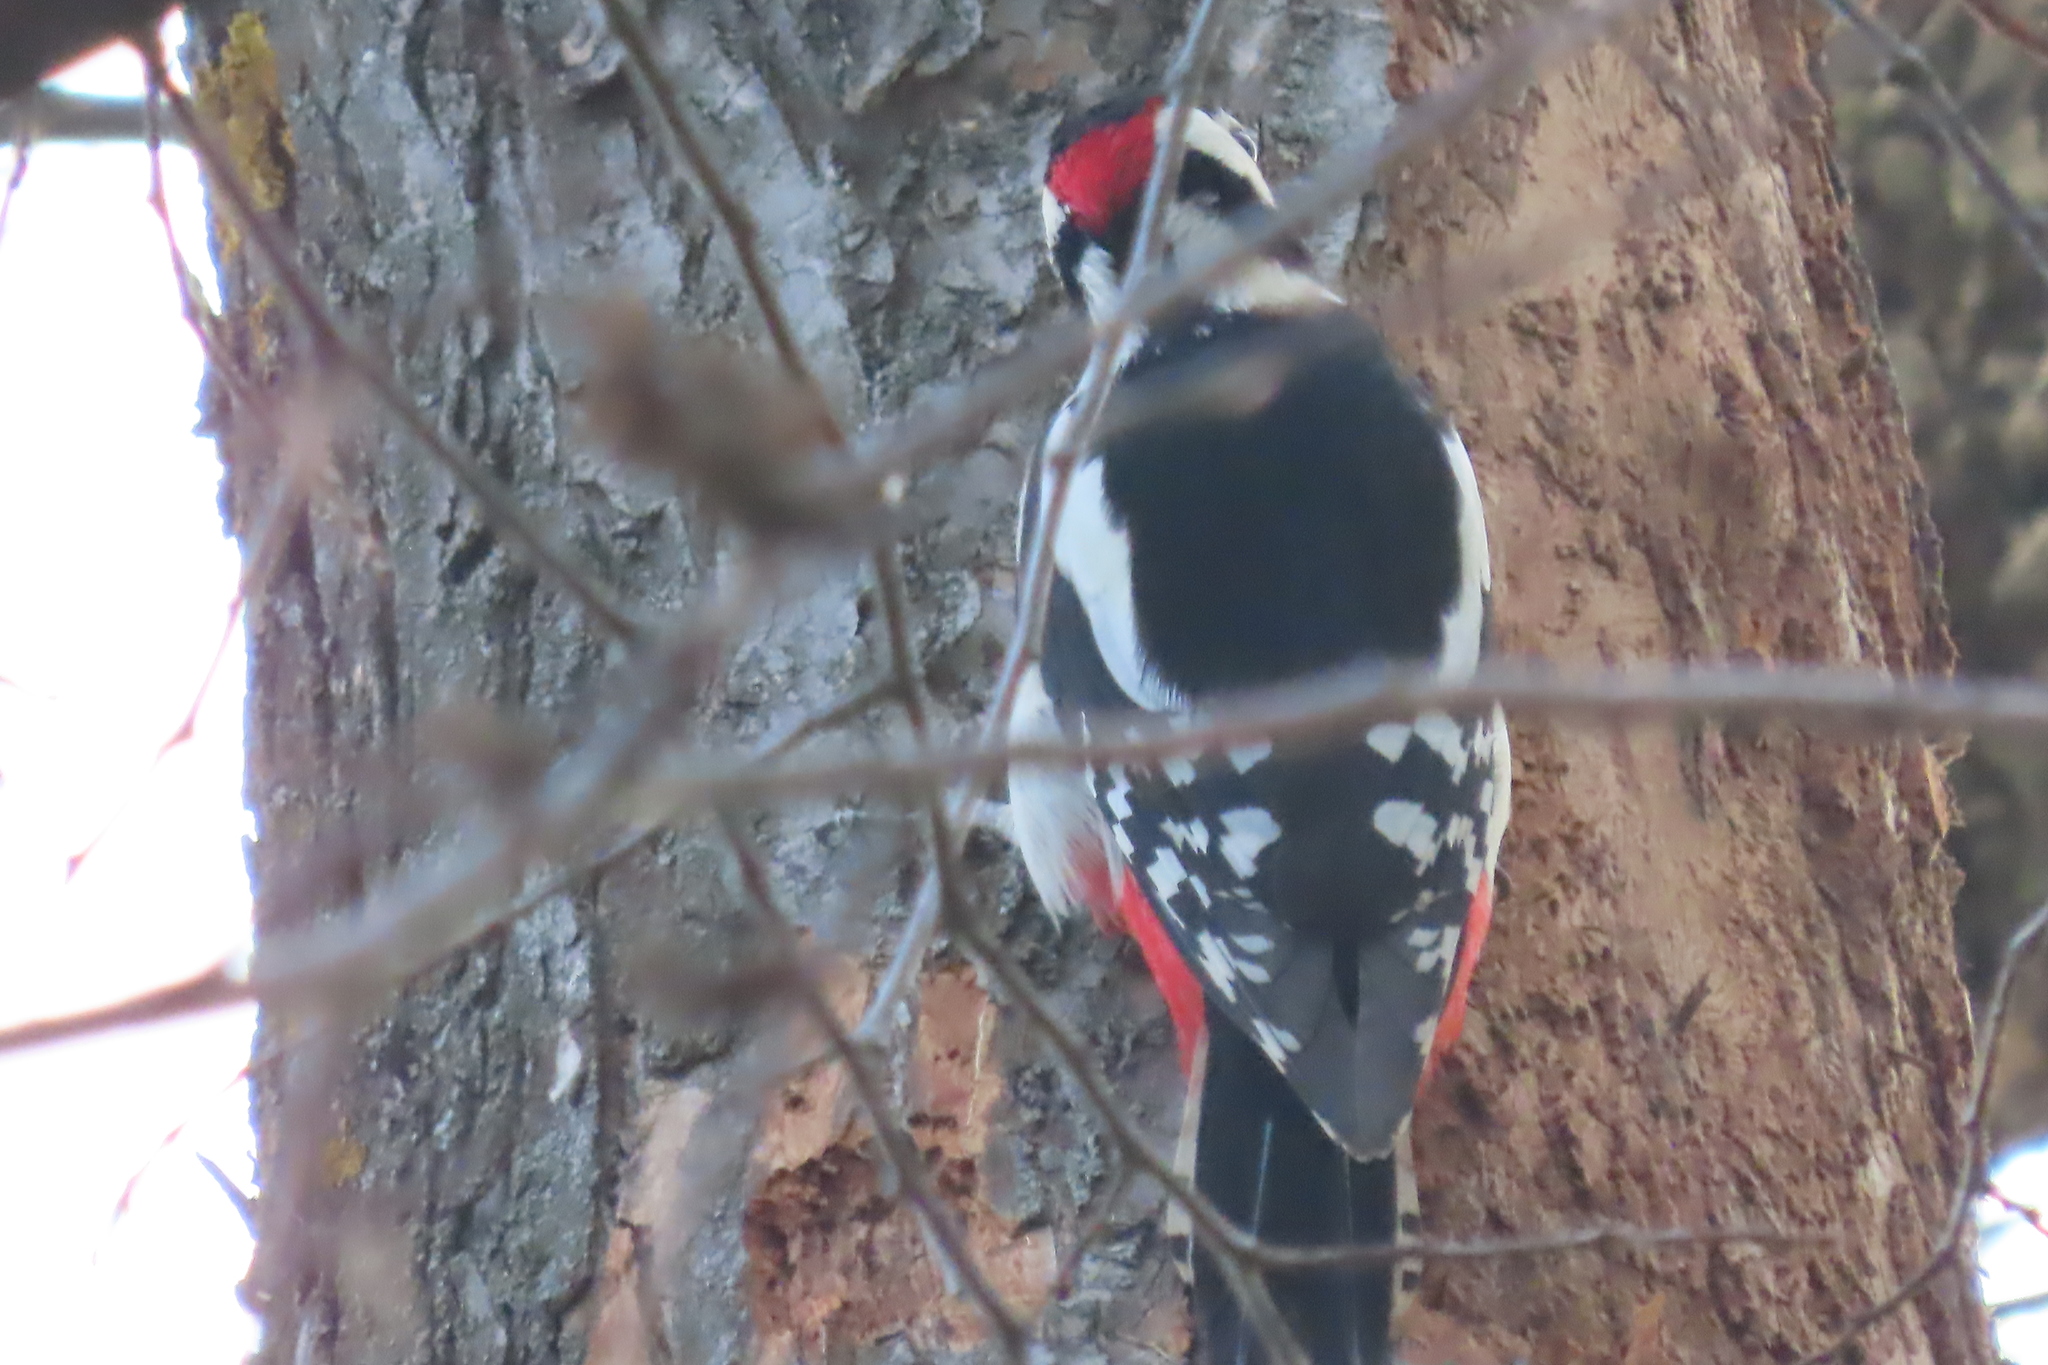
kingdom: Animalia
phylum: Chordata
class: Aves
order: Piciformes
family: Picidae
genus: Dendrocopos
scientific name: Dendrocopos major
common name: Great spotted woodpecker
